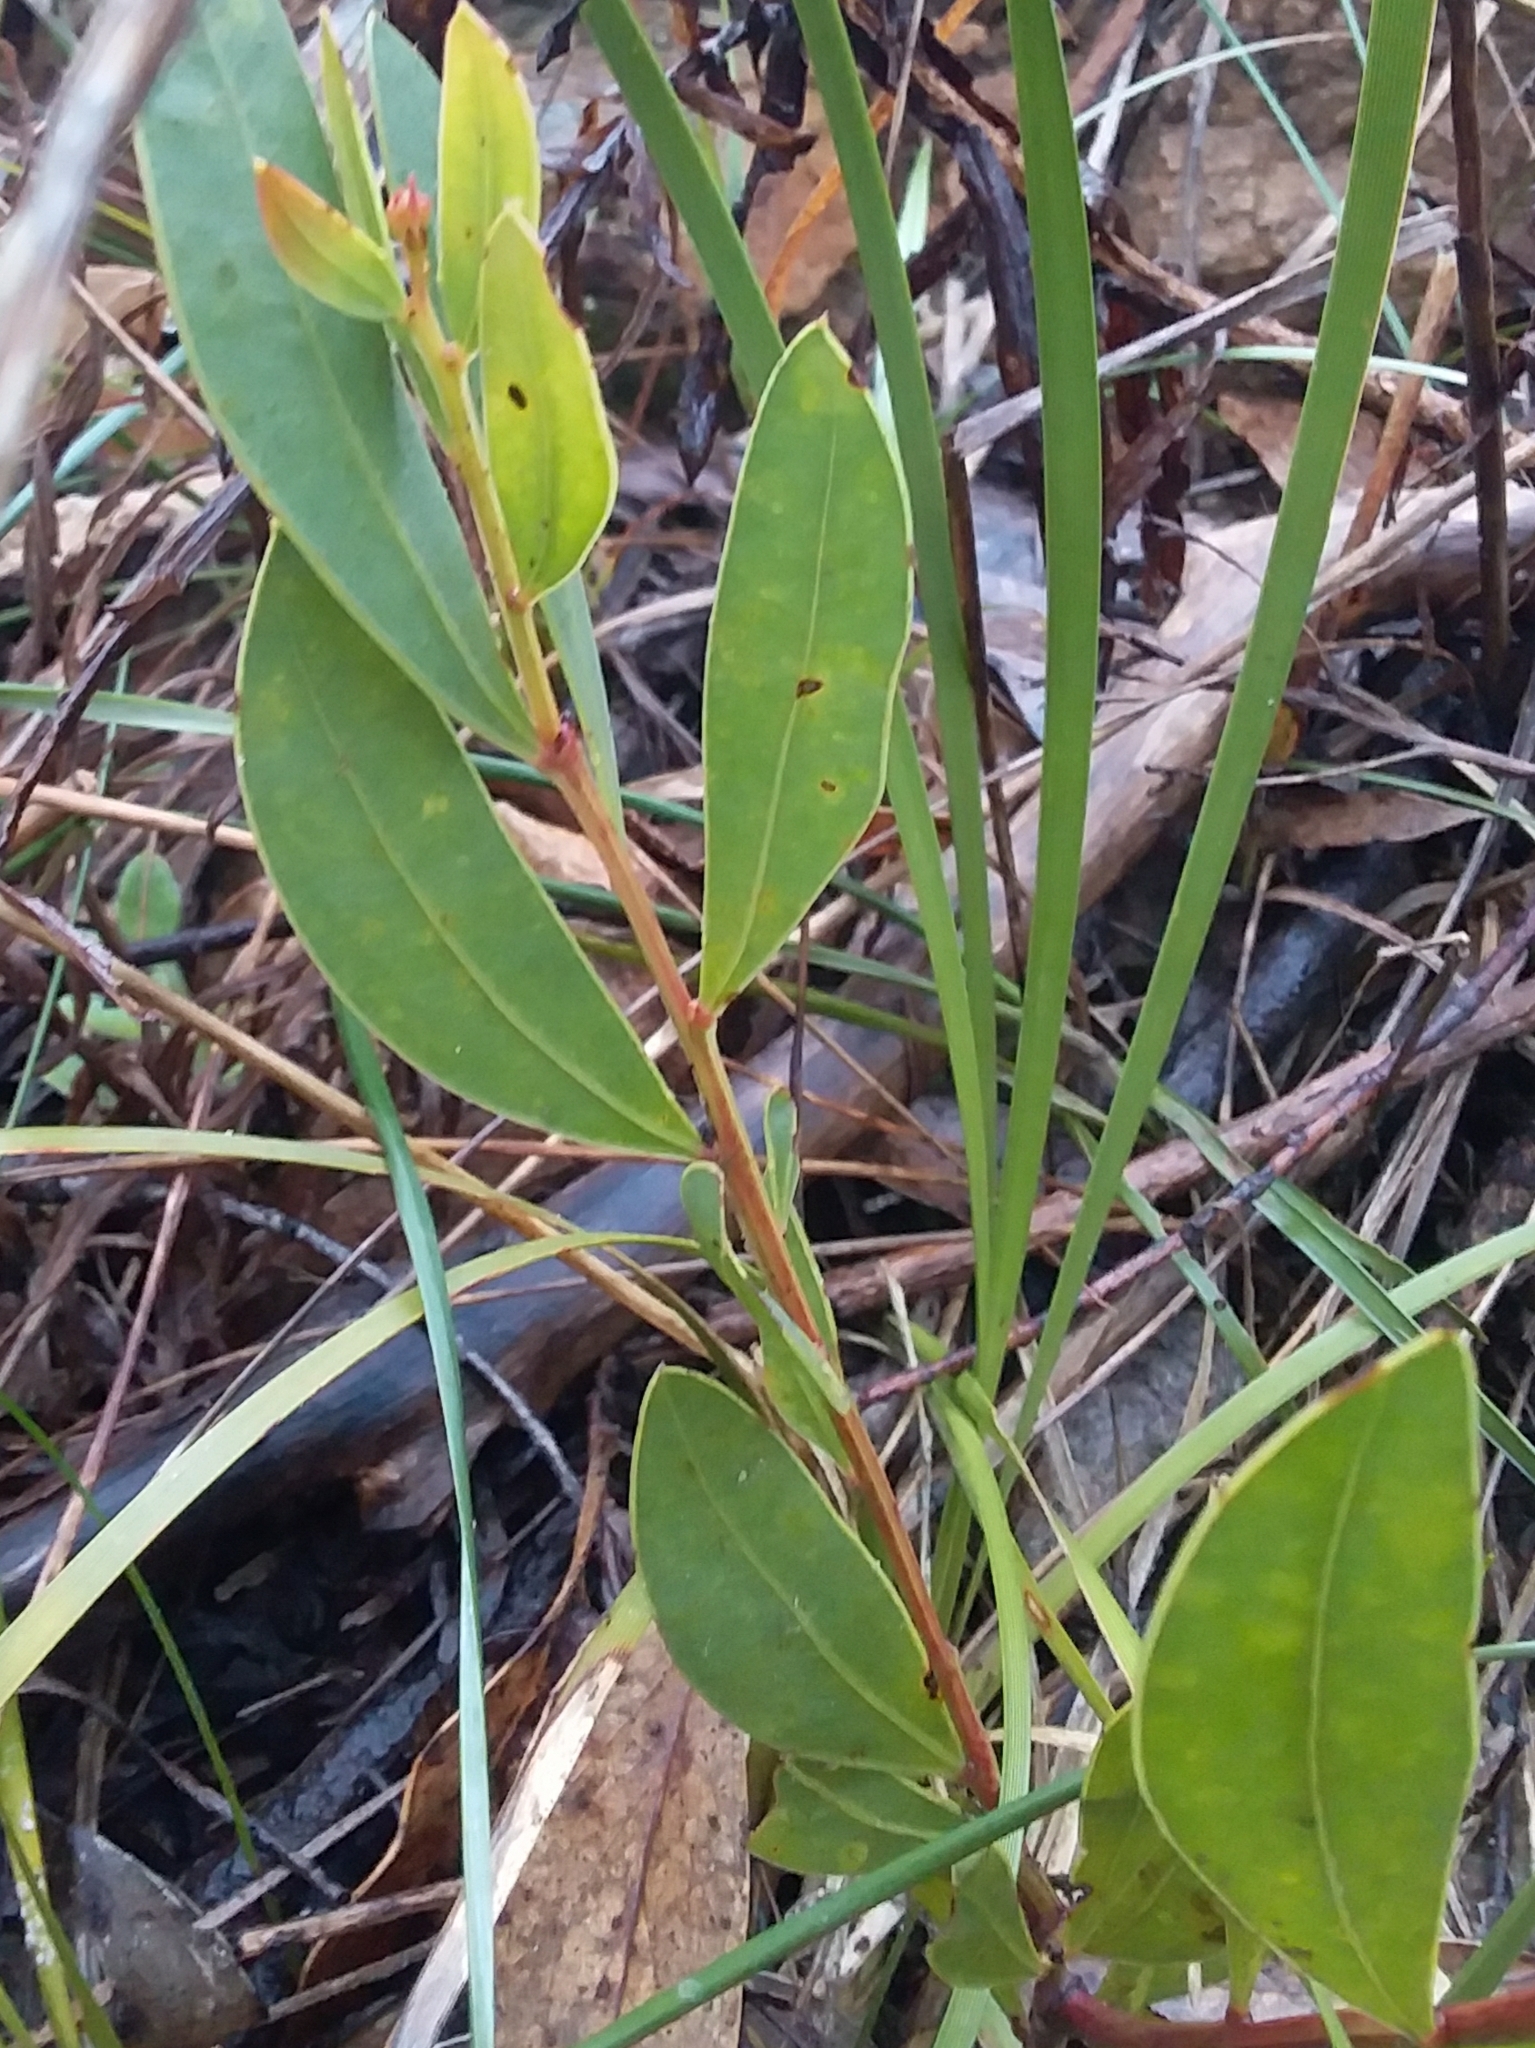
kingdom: Plantae
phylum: Tracheophyta
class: Magnoliopsida
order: Fabales
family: Fabaceae
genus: Acacia
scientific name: Acacia myrtifolia
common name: Myrtle wattle
